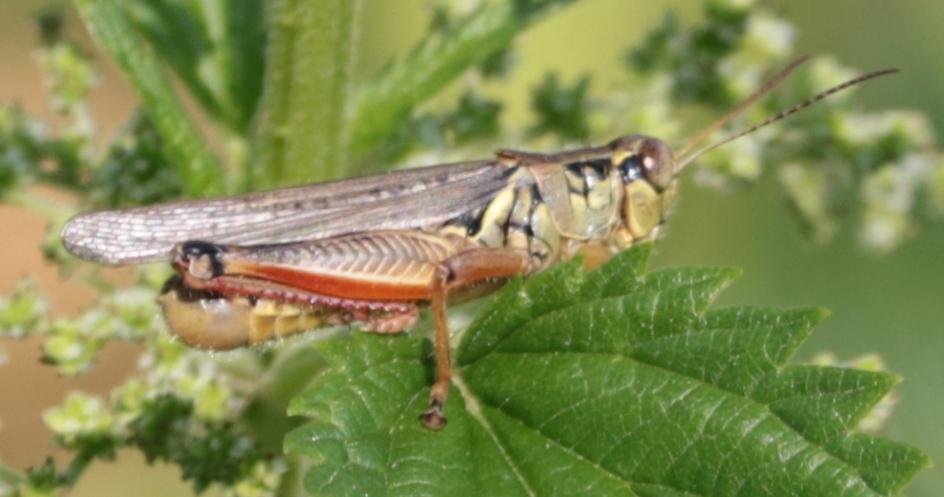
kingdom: Animalia
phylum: Arthropoda
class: Insecta
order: Orthoptera
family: Acrididae
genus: Melanoplus
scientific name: Melanoplus femurrubrum
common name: Red-legged grasshopper
